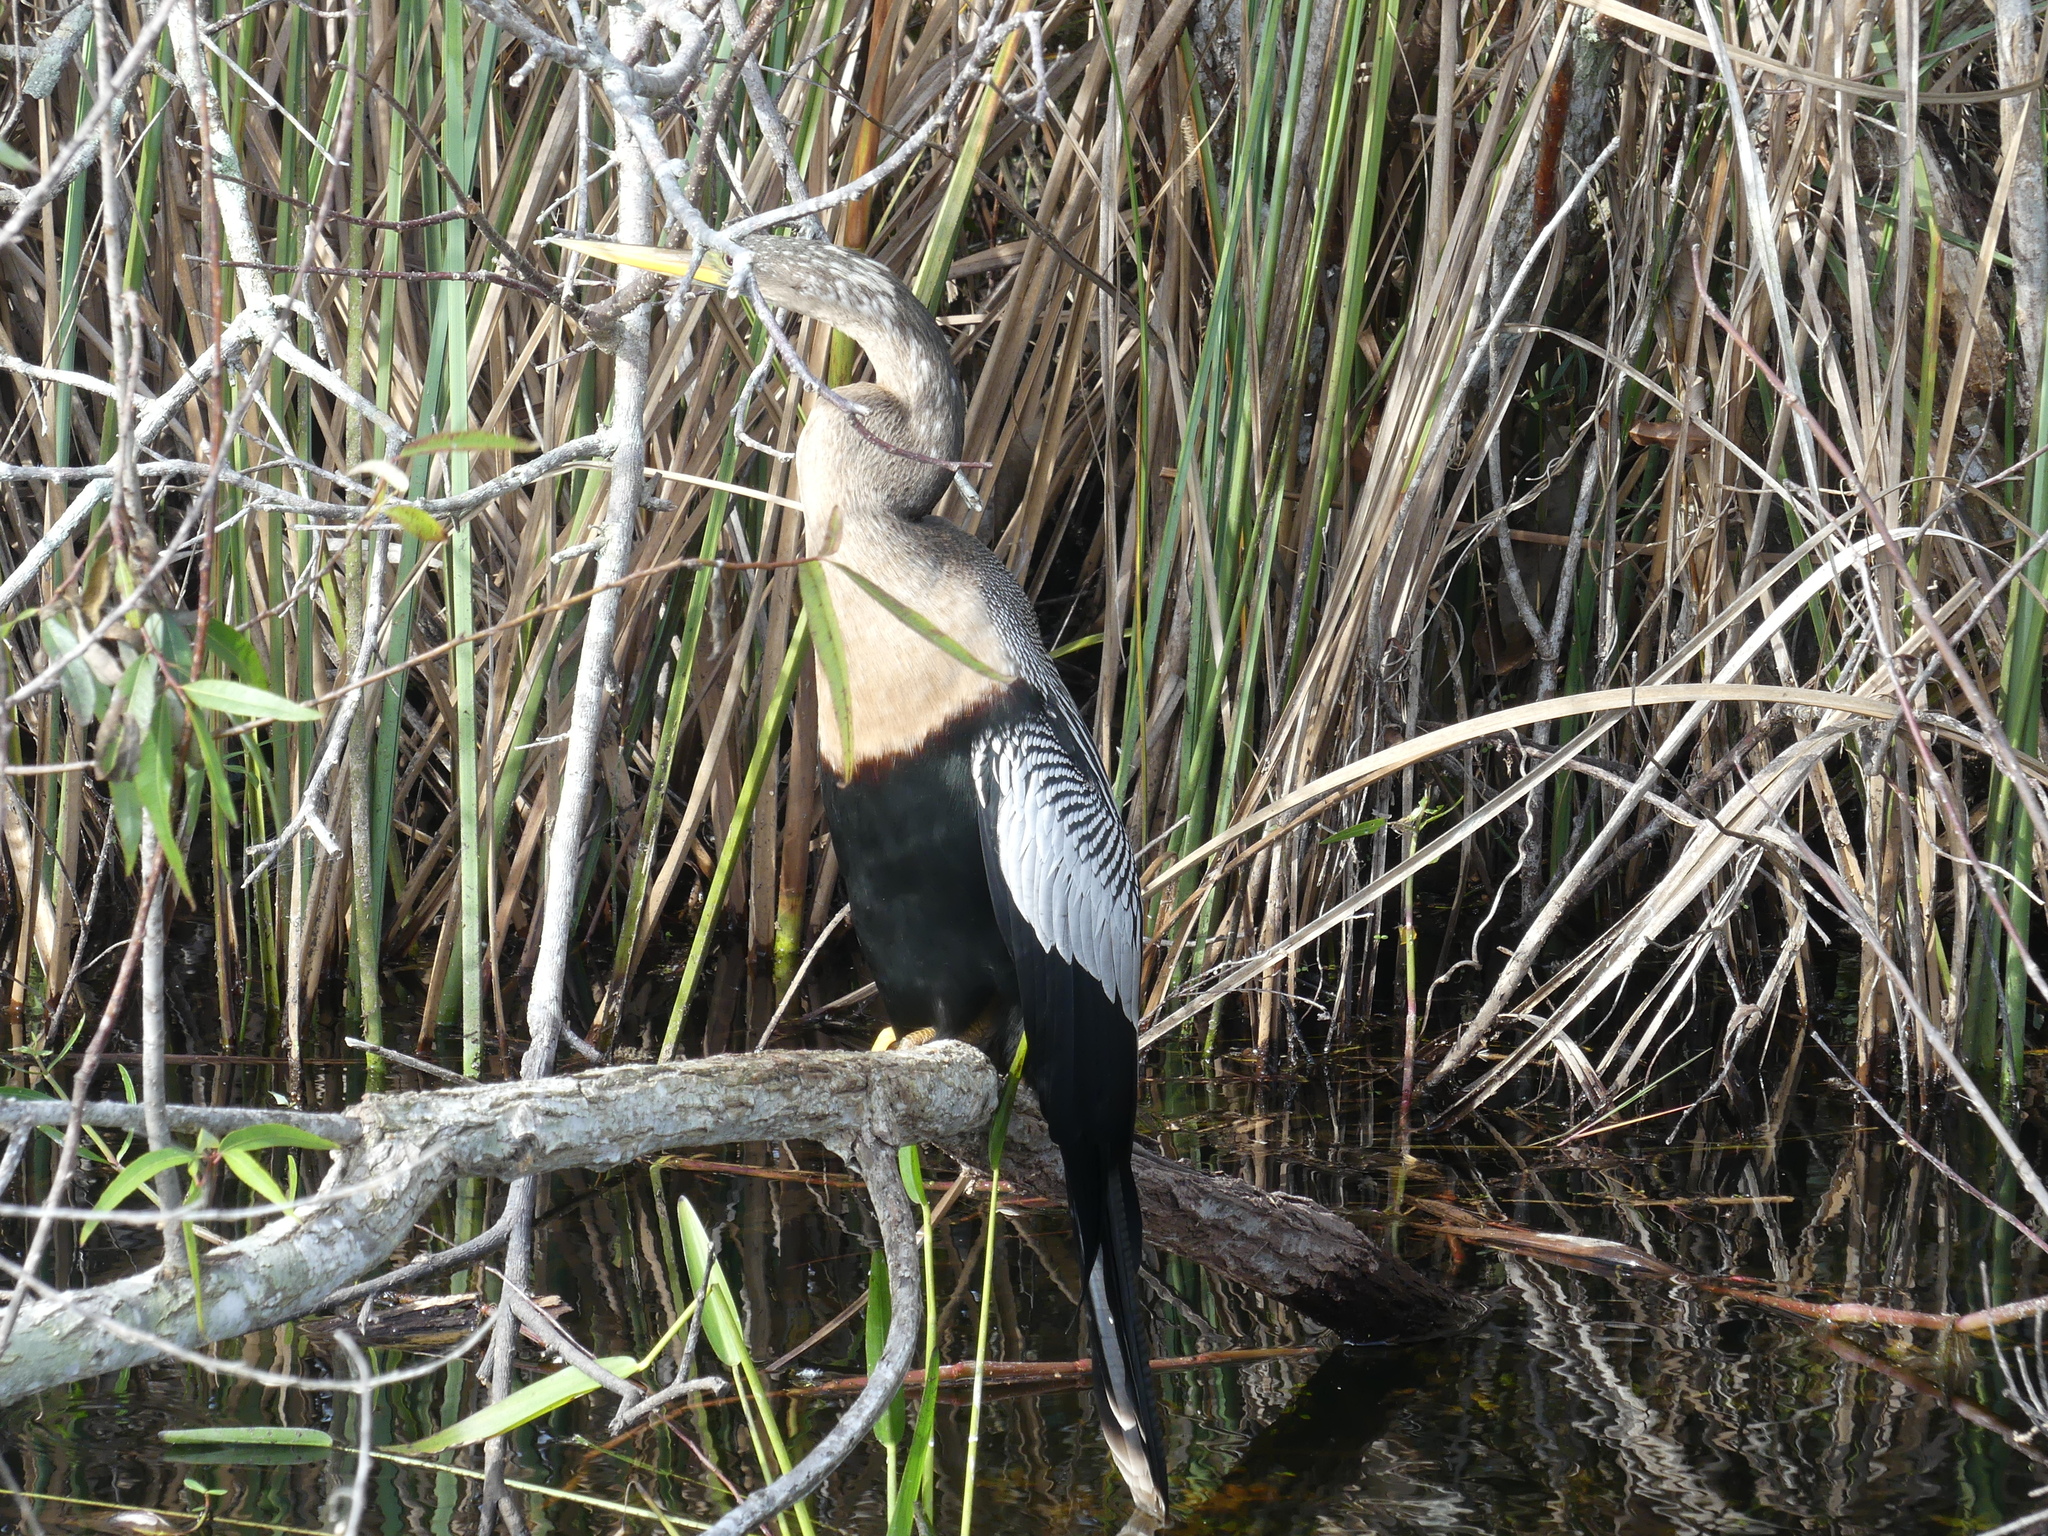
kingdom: Animalia
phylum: Chordata
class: Aves
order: Suliformes
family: Anhingidae
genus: Anhinga
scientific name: Anhinga anhinga
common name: Anhinga
